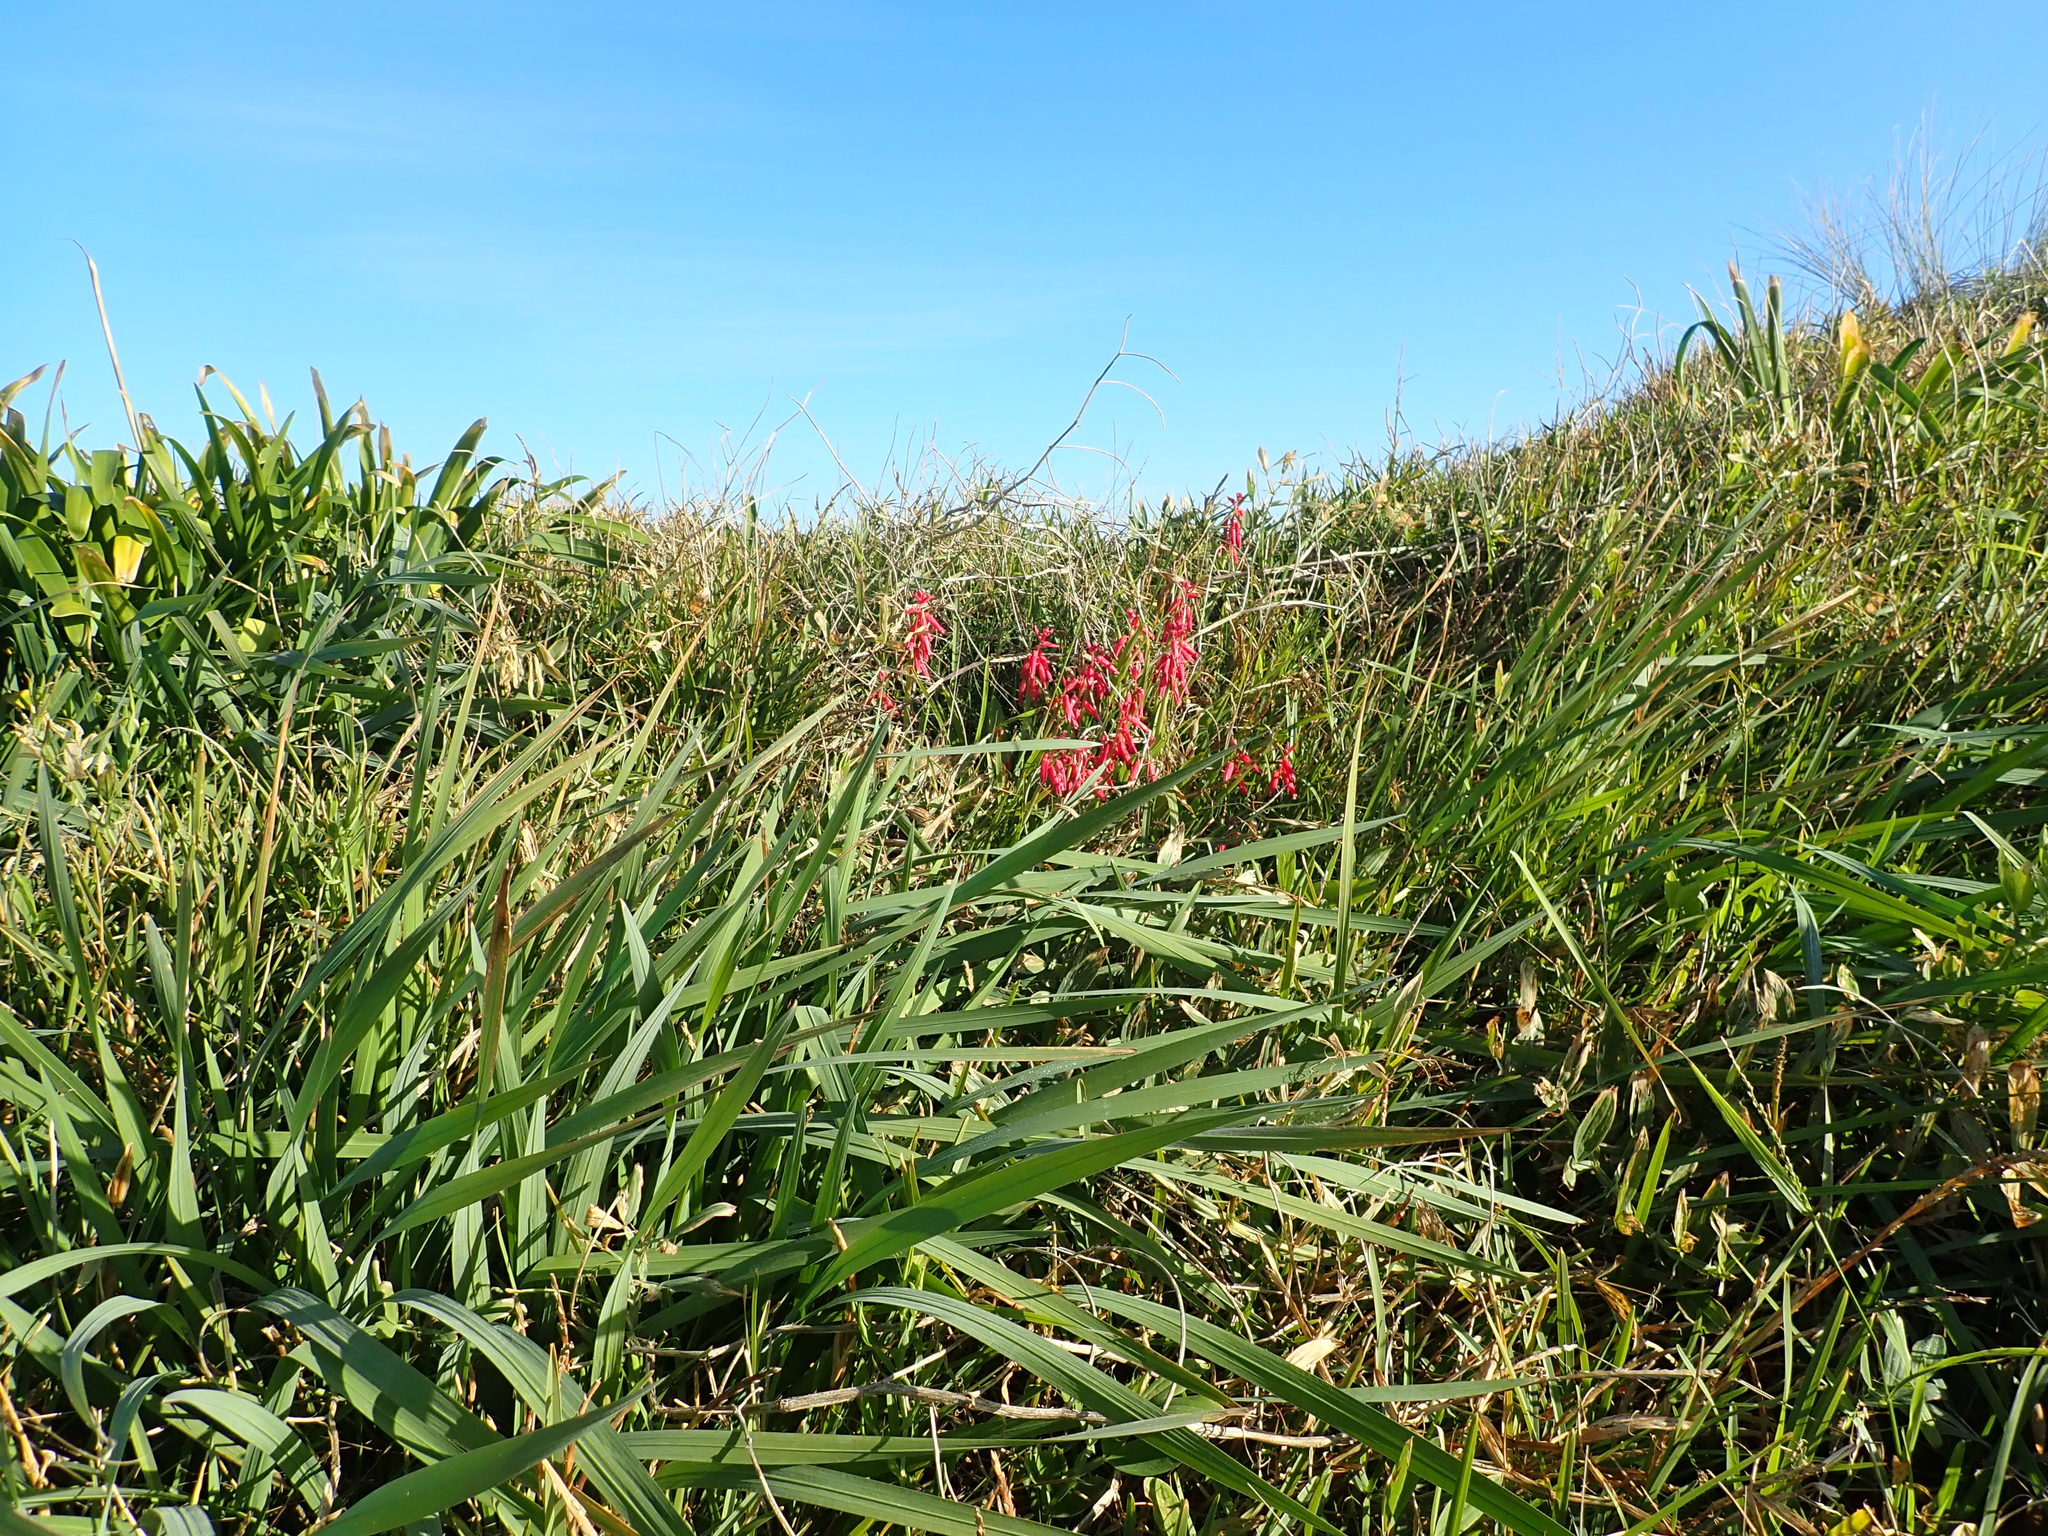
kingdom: Plantae
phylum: Tracheophyta
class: Liliopsida
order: Asparagales
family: Asparagaceae
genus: Lachenalia
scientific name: Lachenalia bulbifera
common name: Red lachenalia
